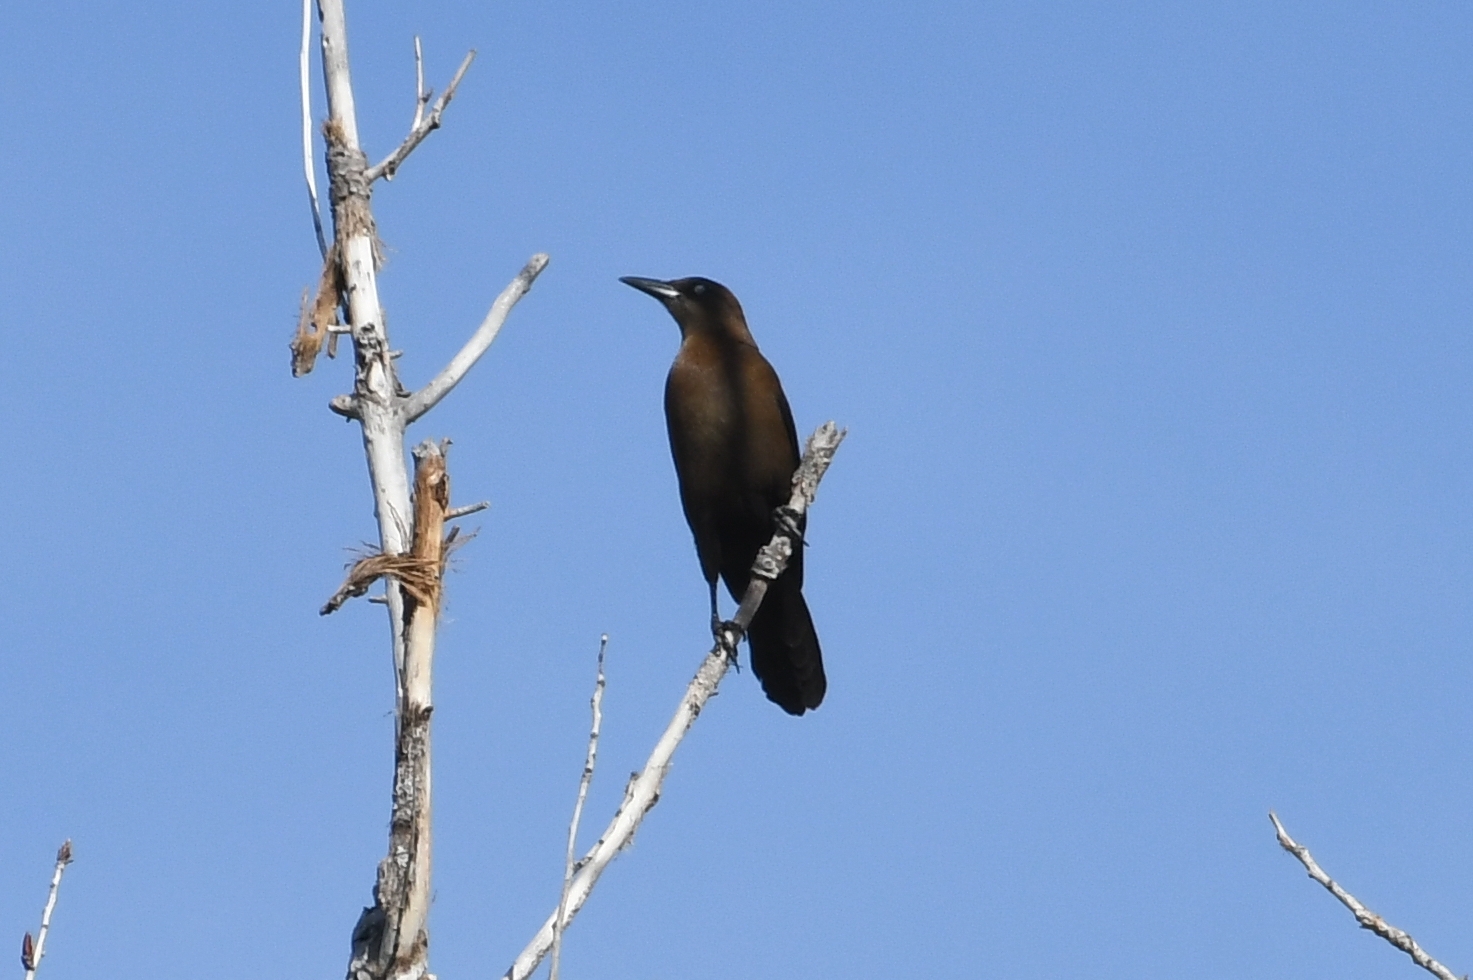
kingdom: Animalia
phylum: Chordata
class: Aves
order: Passeriformes
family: Icteridae
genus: Quiscalus
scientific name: Quiscalus mexicanus
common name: Great-tailed grackle
